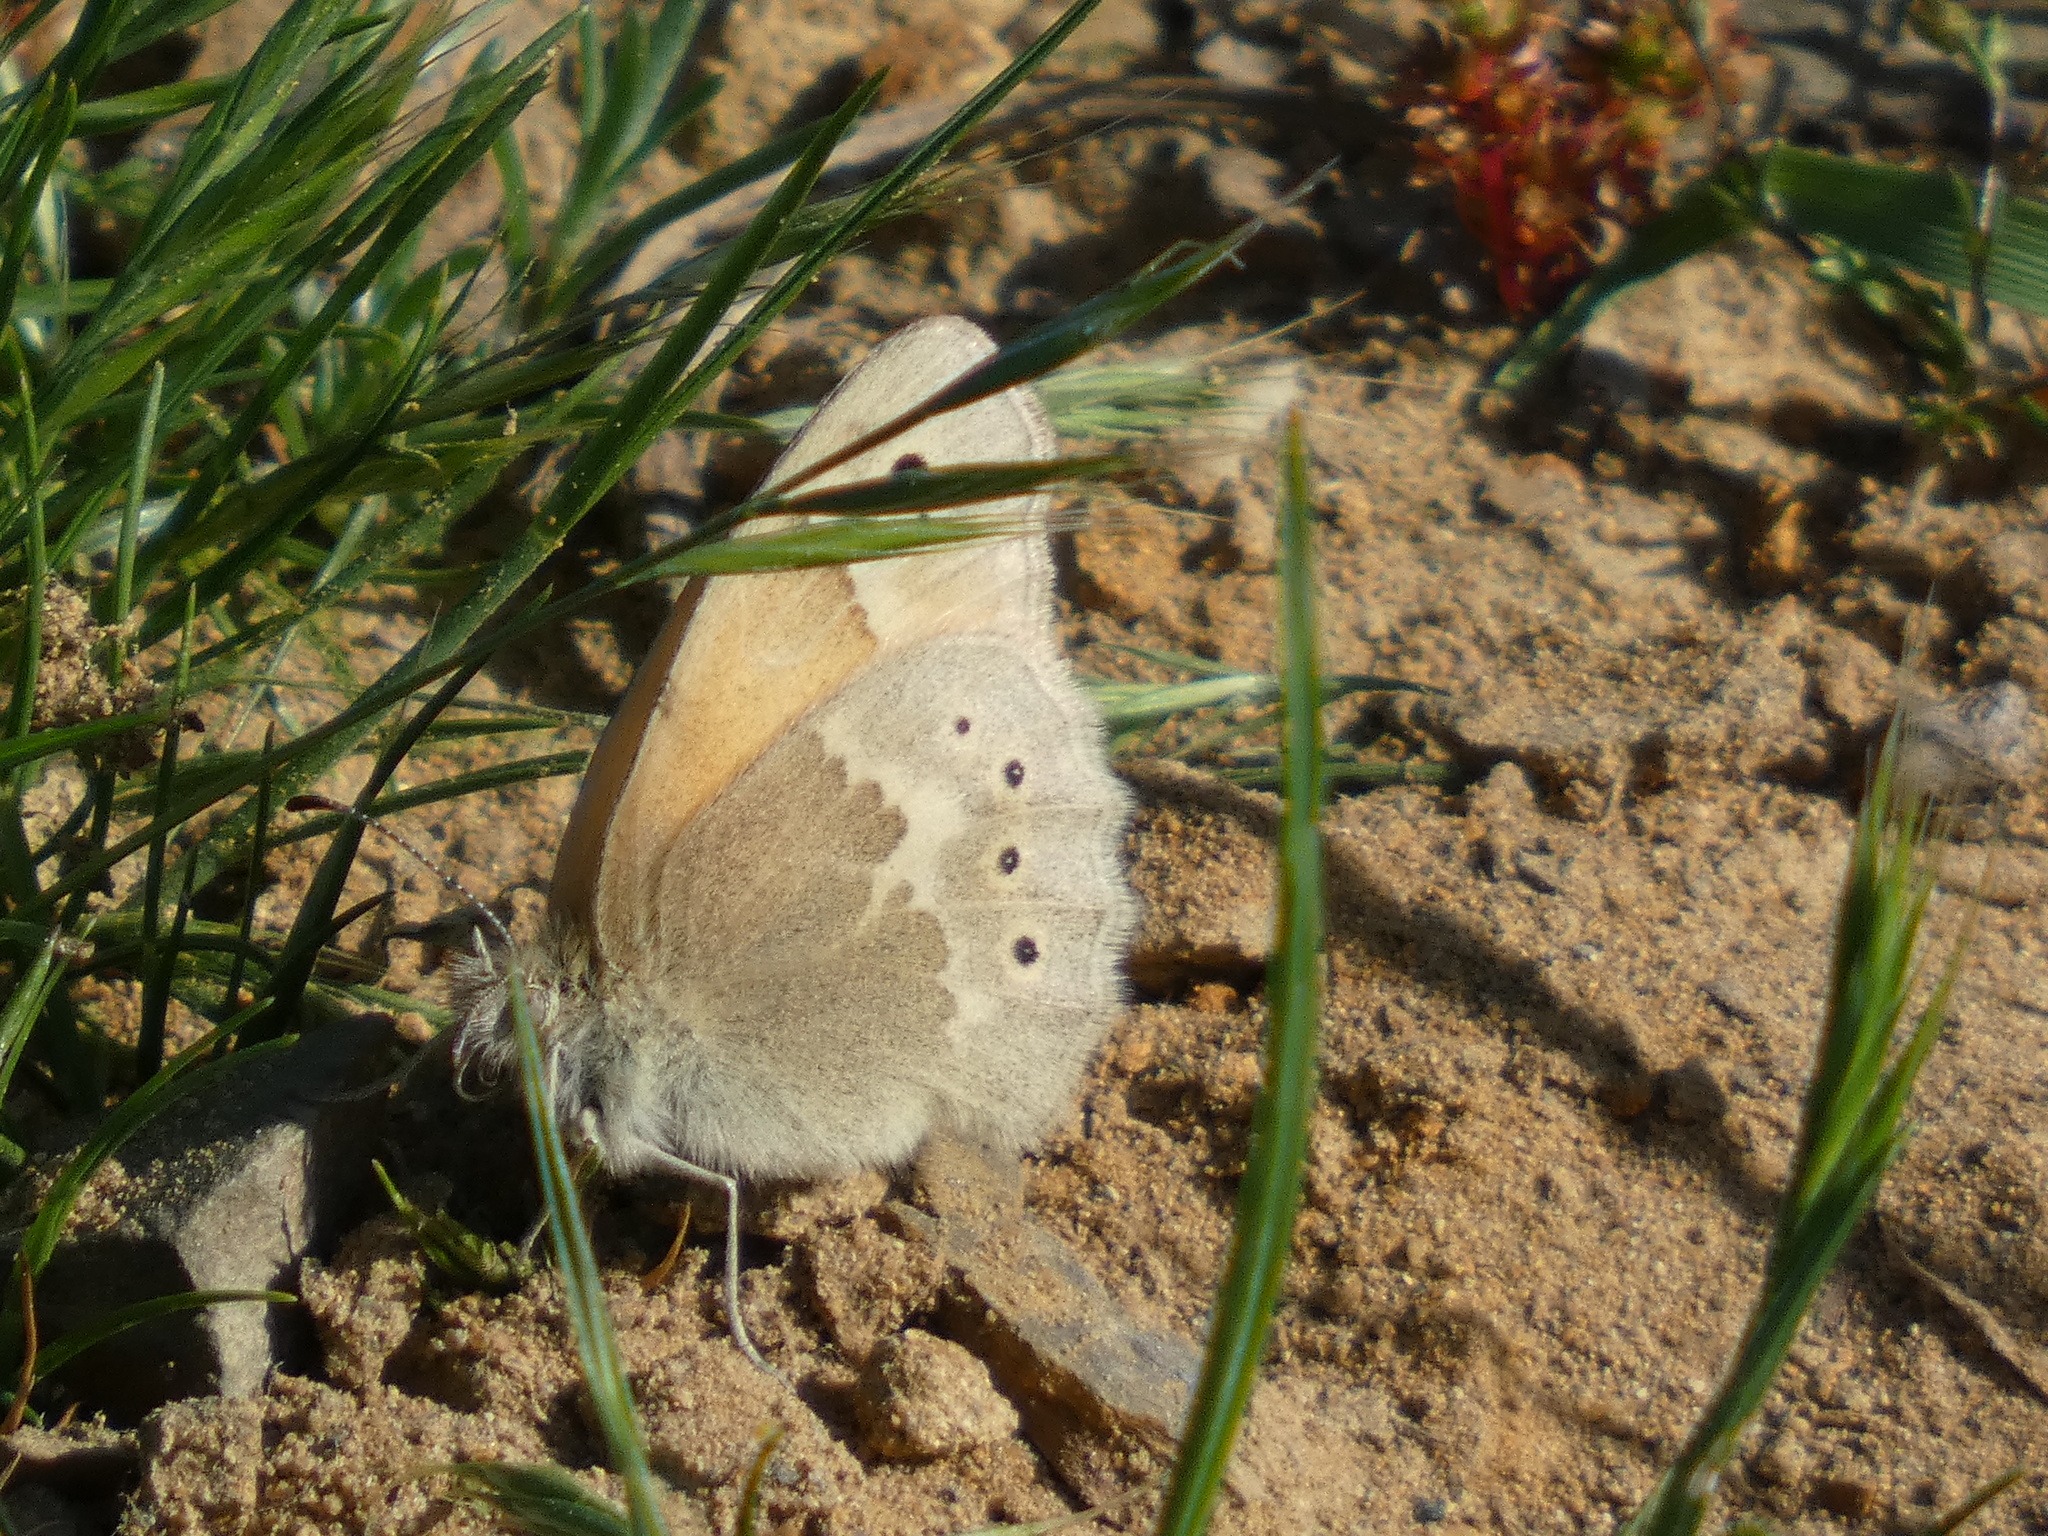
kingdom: Animalia
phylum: Arthropoda
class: Insecta
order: Lepidoptera
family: Nymphalidae
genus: Coenonympha
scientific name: Coenonympha california
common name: Common ringlet
